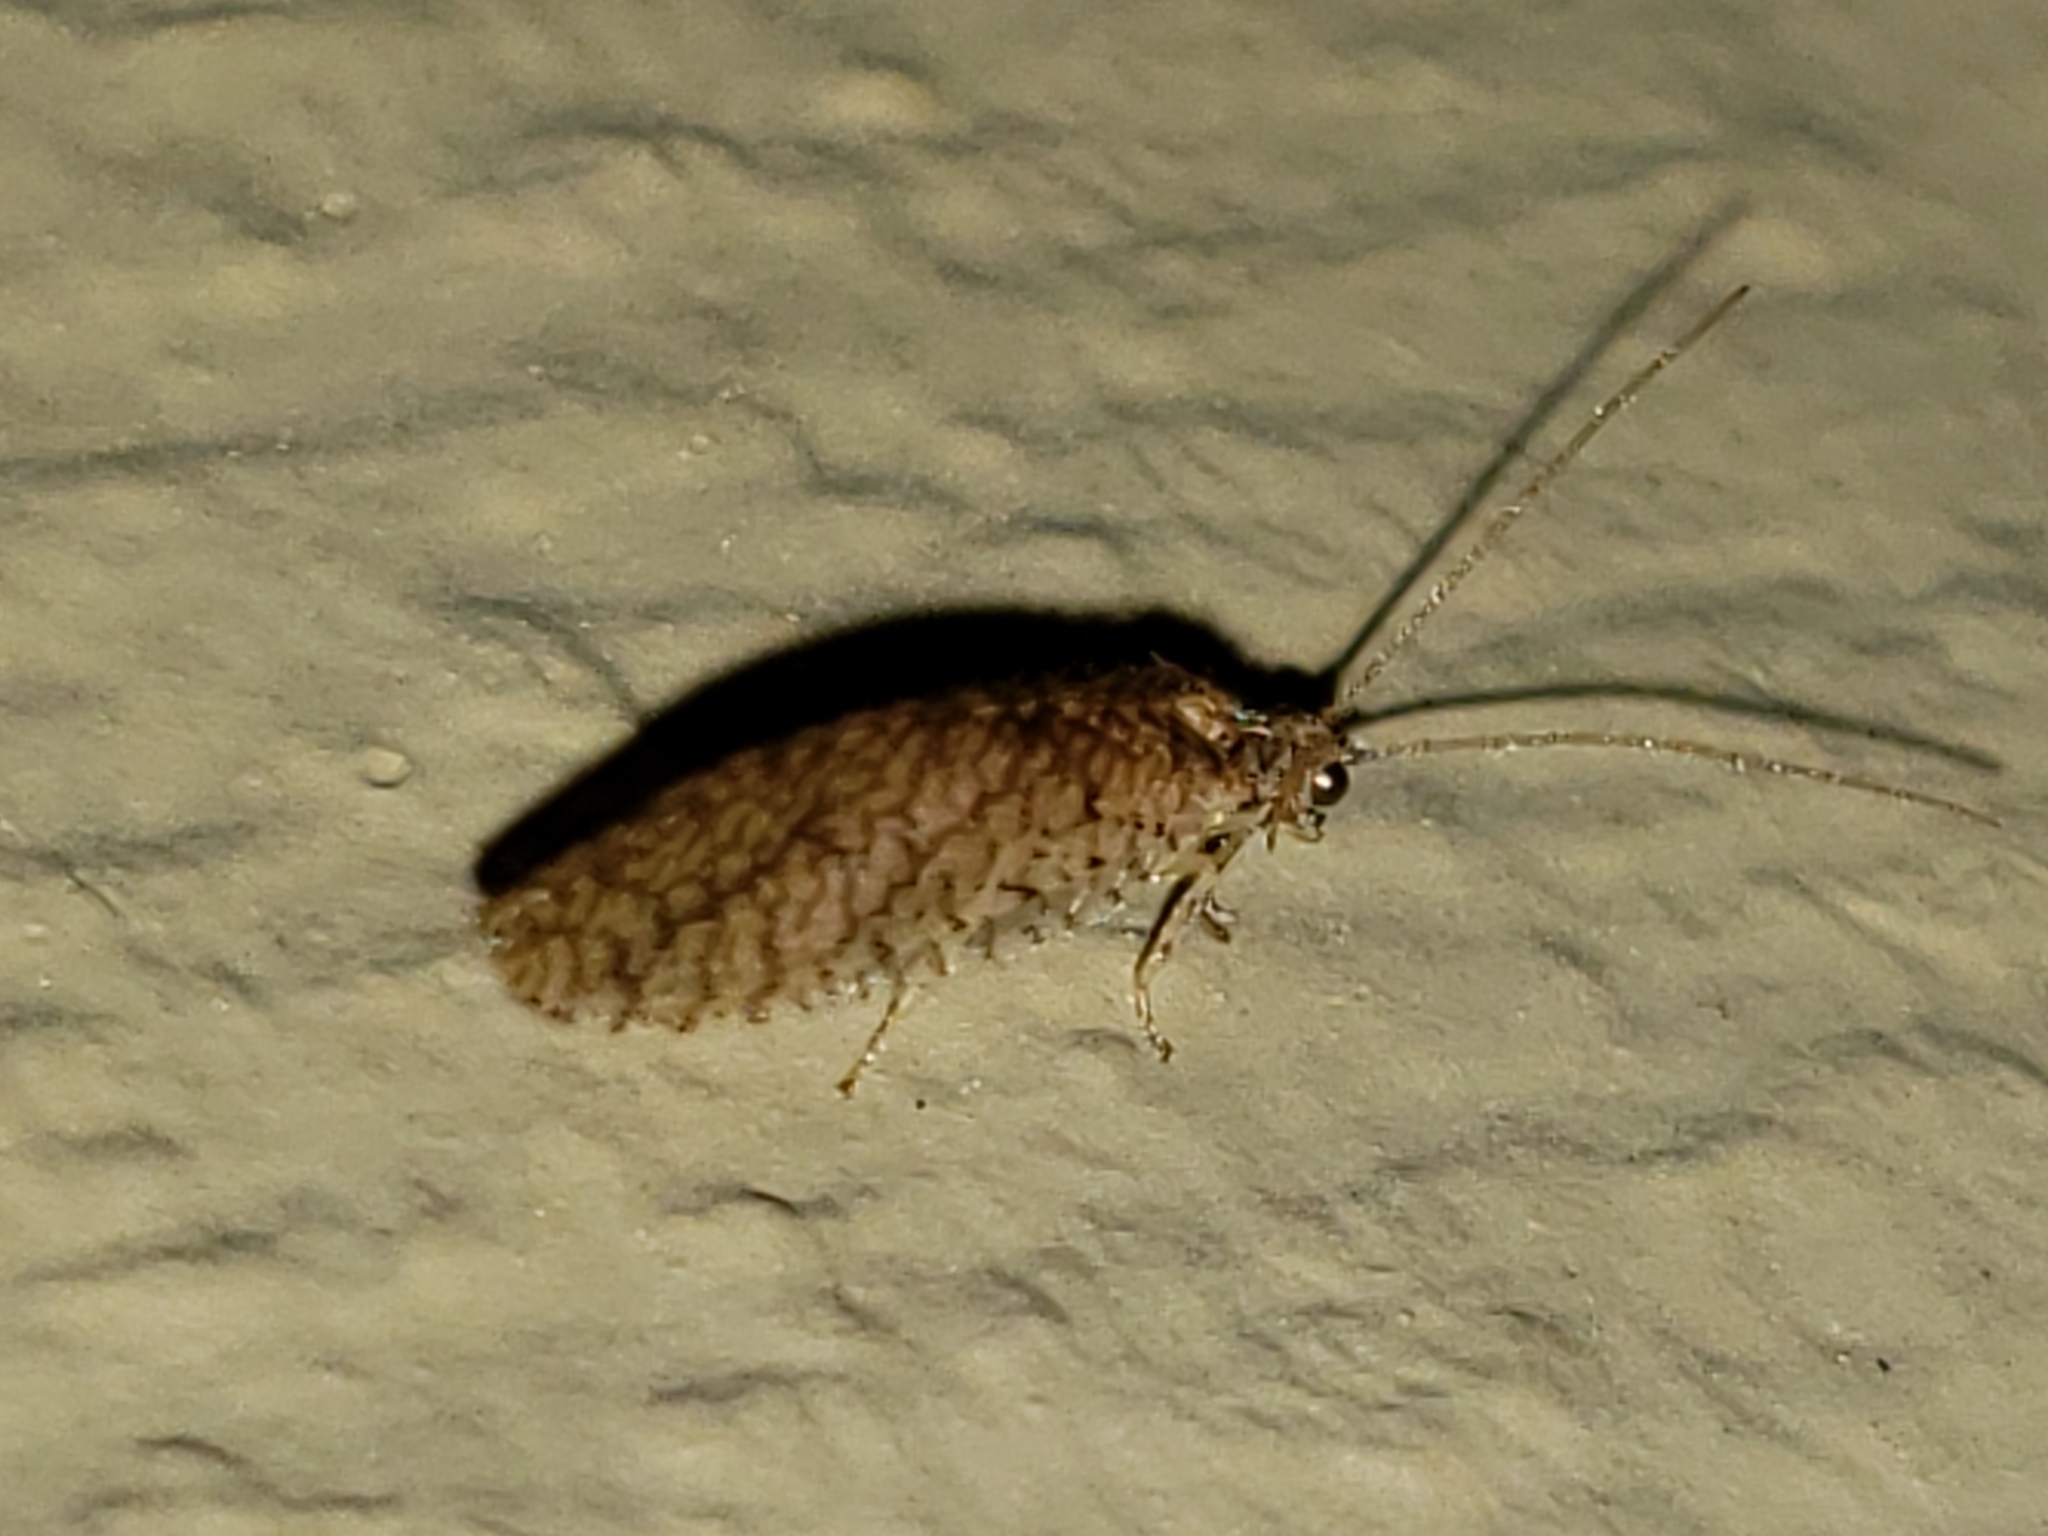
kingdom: Animalia
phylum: Arthropoda
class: Insecta
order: Neuroptera
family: Hemerobiidae
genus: Micromus
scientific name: Micromus posticus
